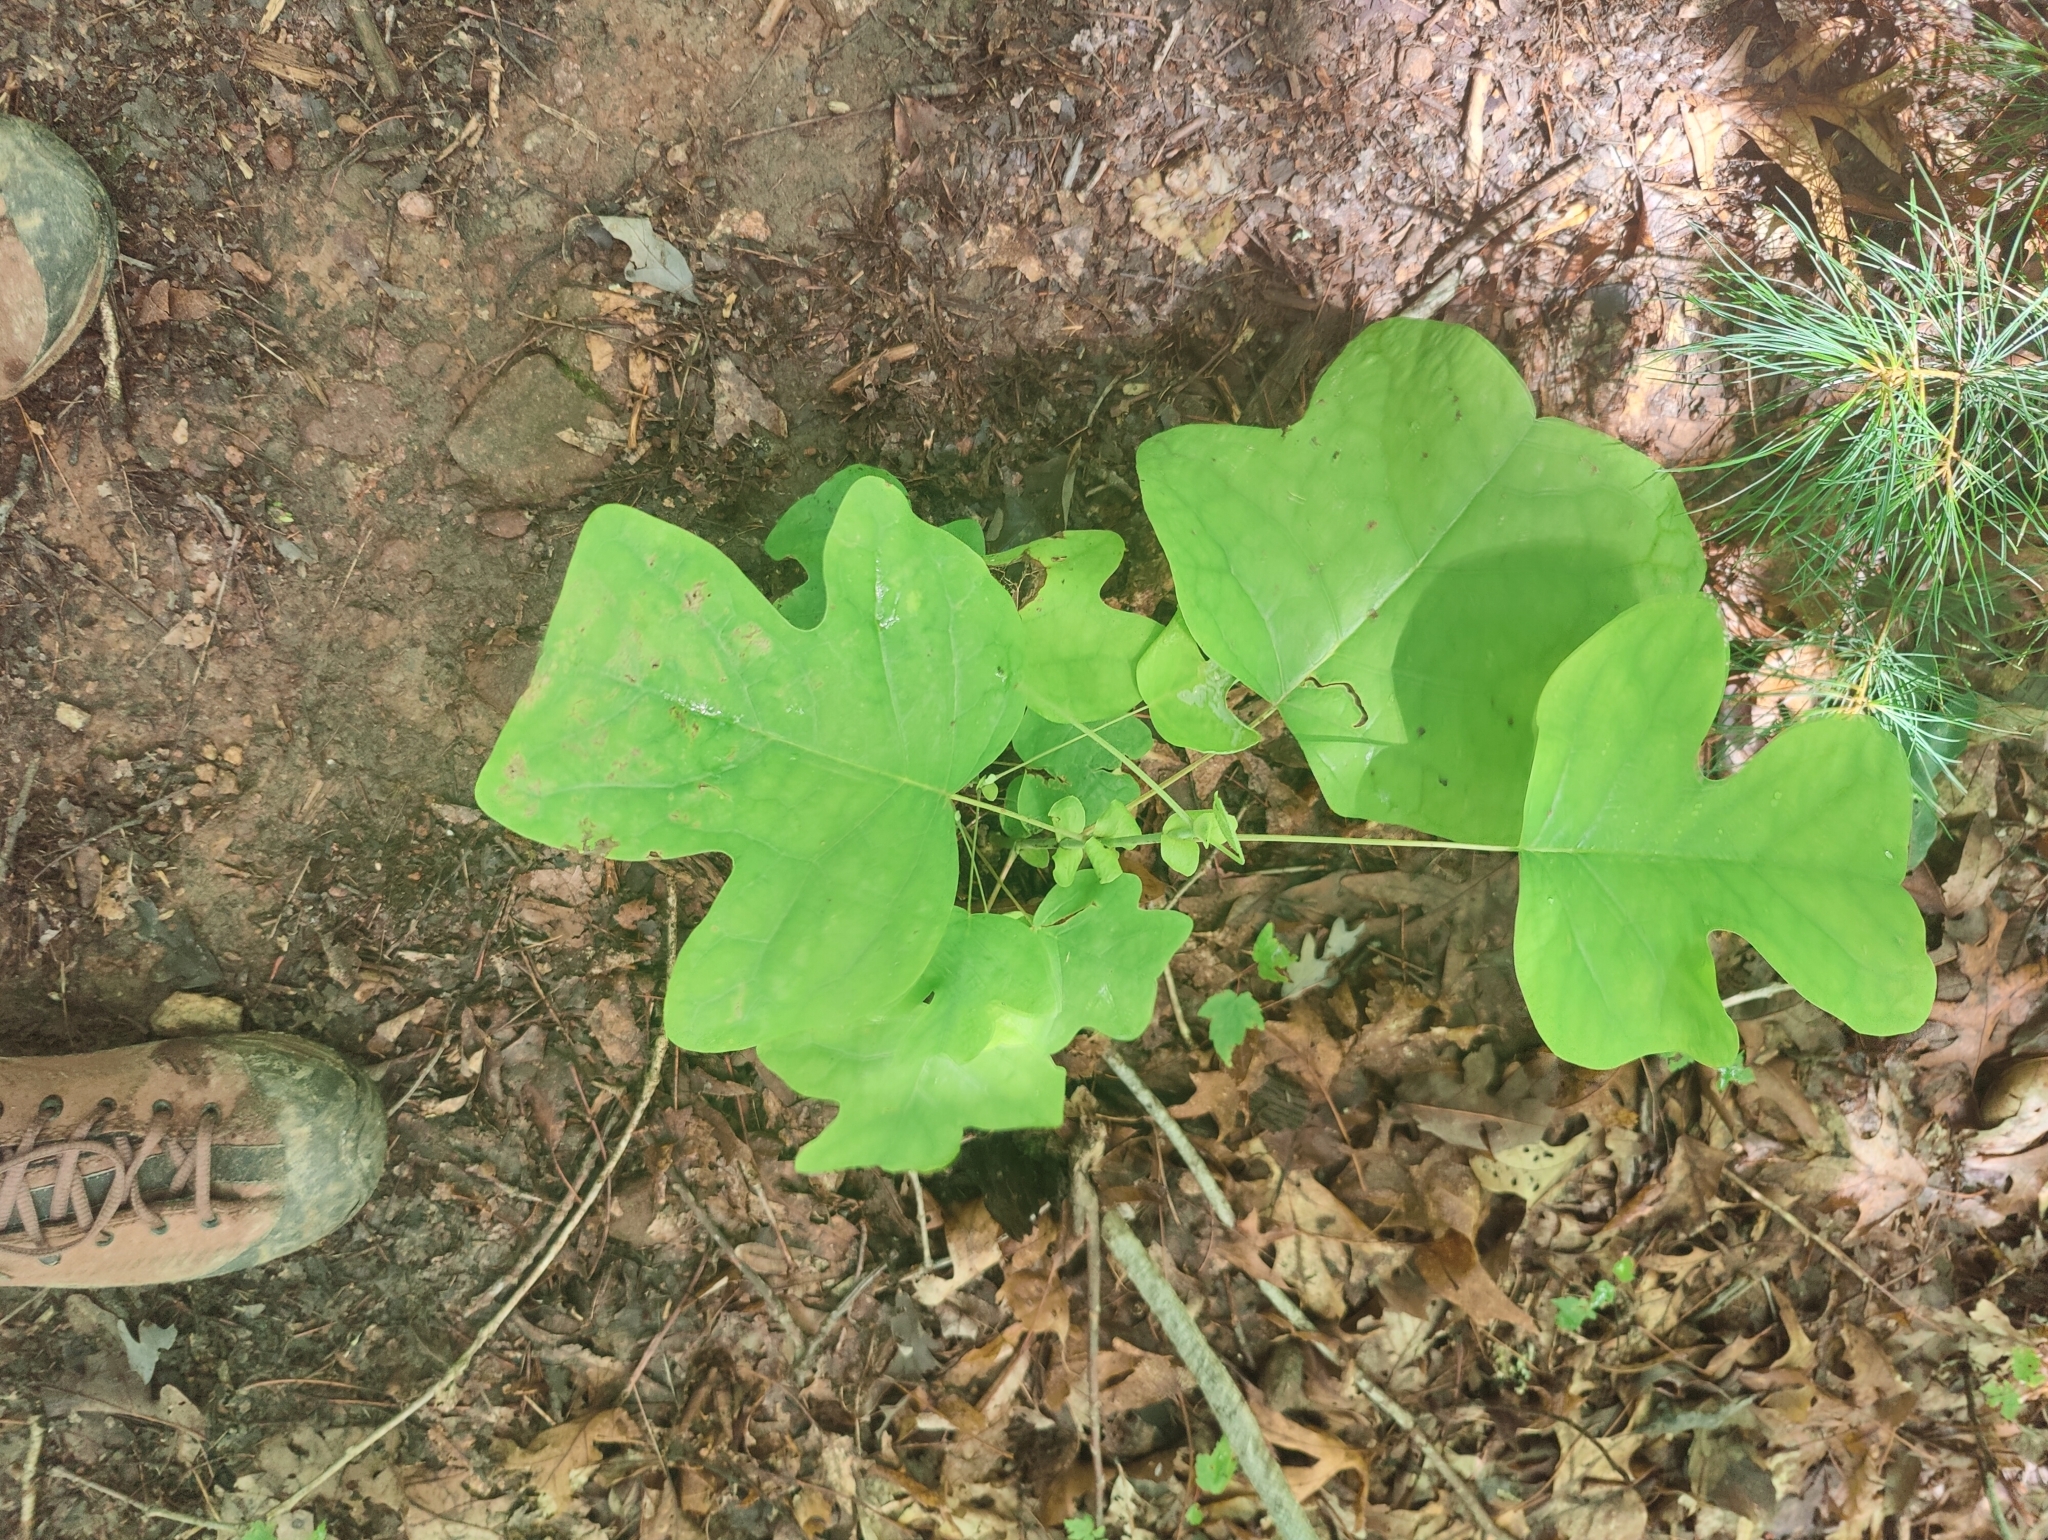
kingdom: Plantae
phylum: Tracheophyta
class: Magnoliopsida
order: Magnoliales
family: Magnoliaceae
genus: Liriodendron
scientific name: Liriodendron tulipifera
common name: Tulip tree
